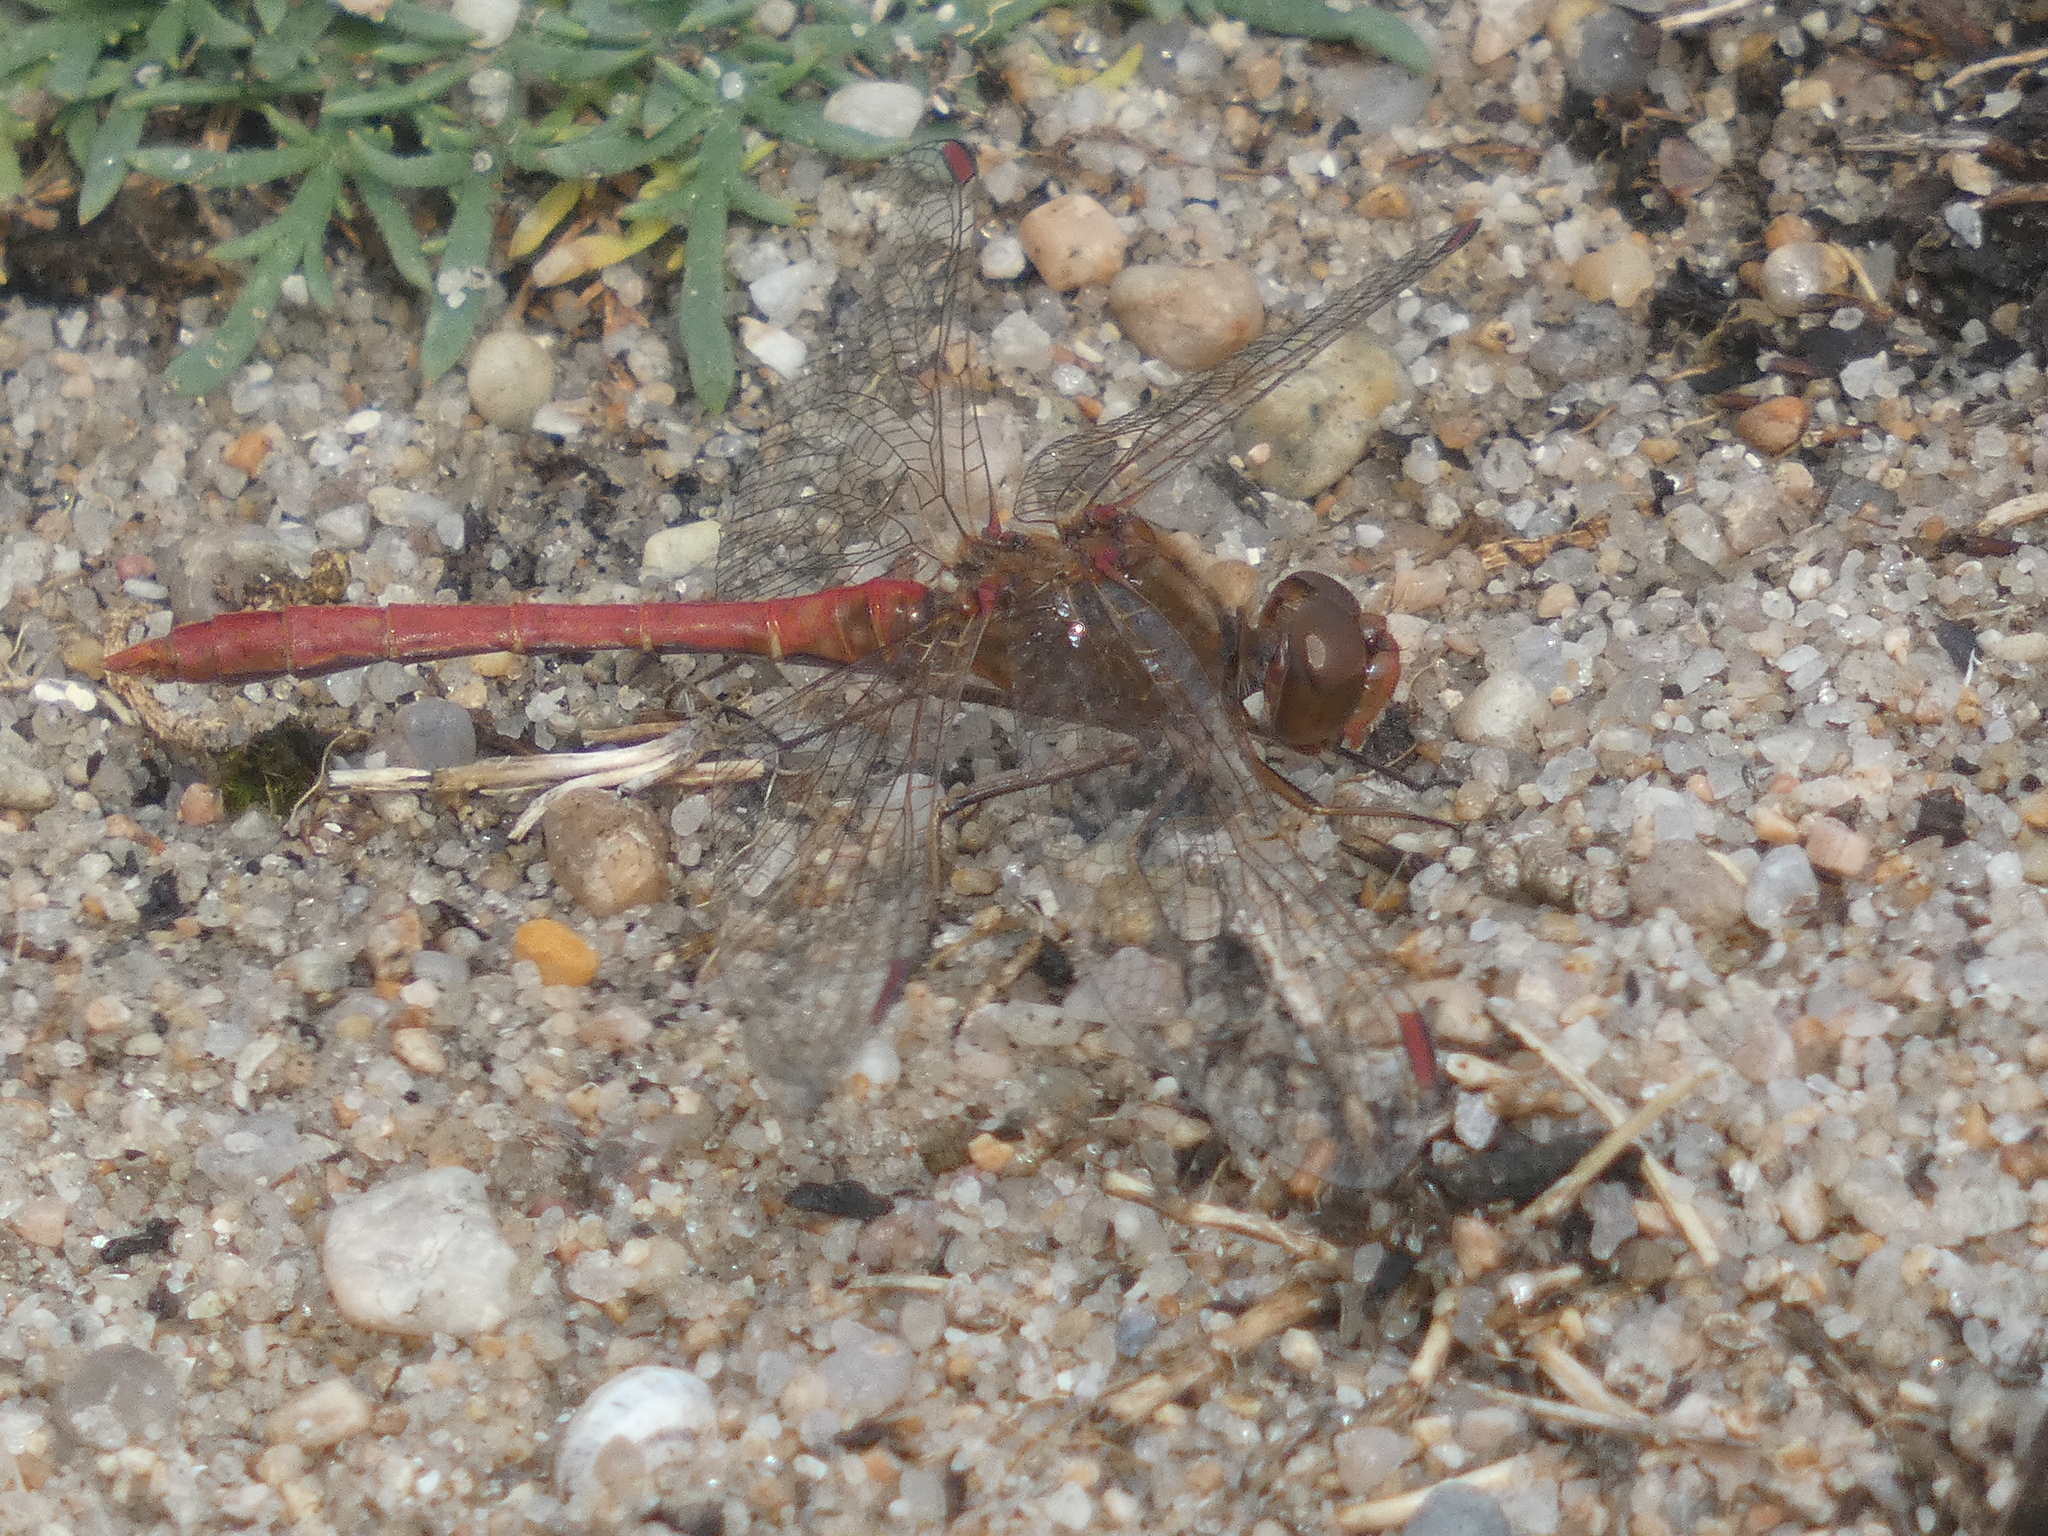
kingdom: Animalia
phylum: Arthropoda
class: Insecta
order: Odonata
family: Libellulidae
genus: Sympetrum
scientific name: Sympetrum meridionale
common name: Southern darter
